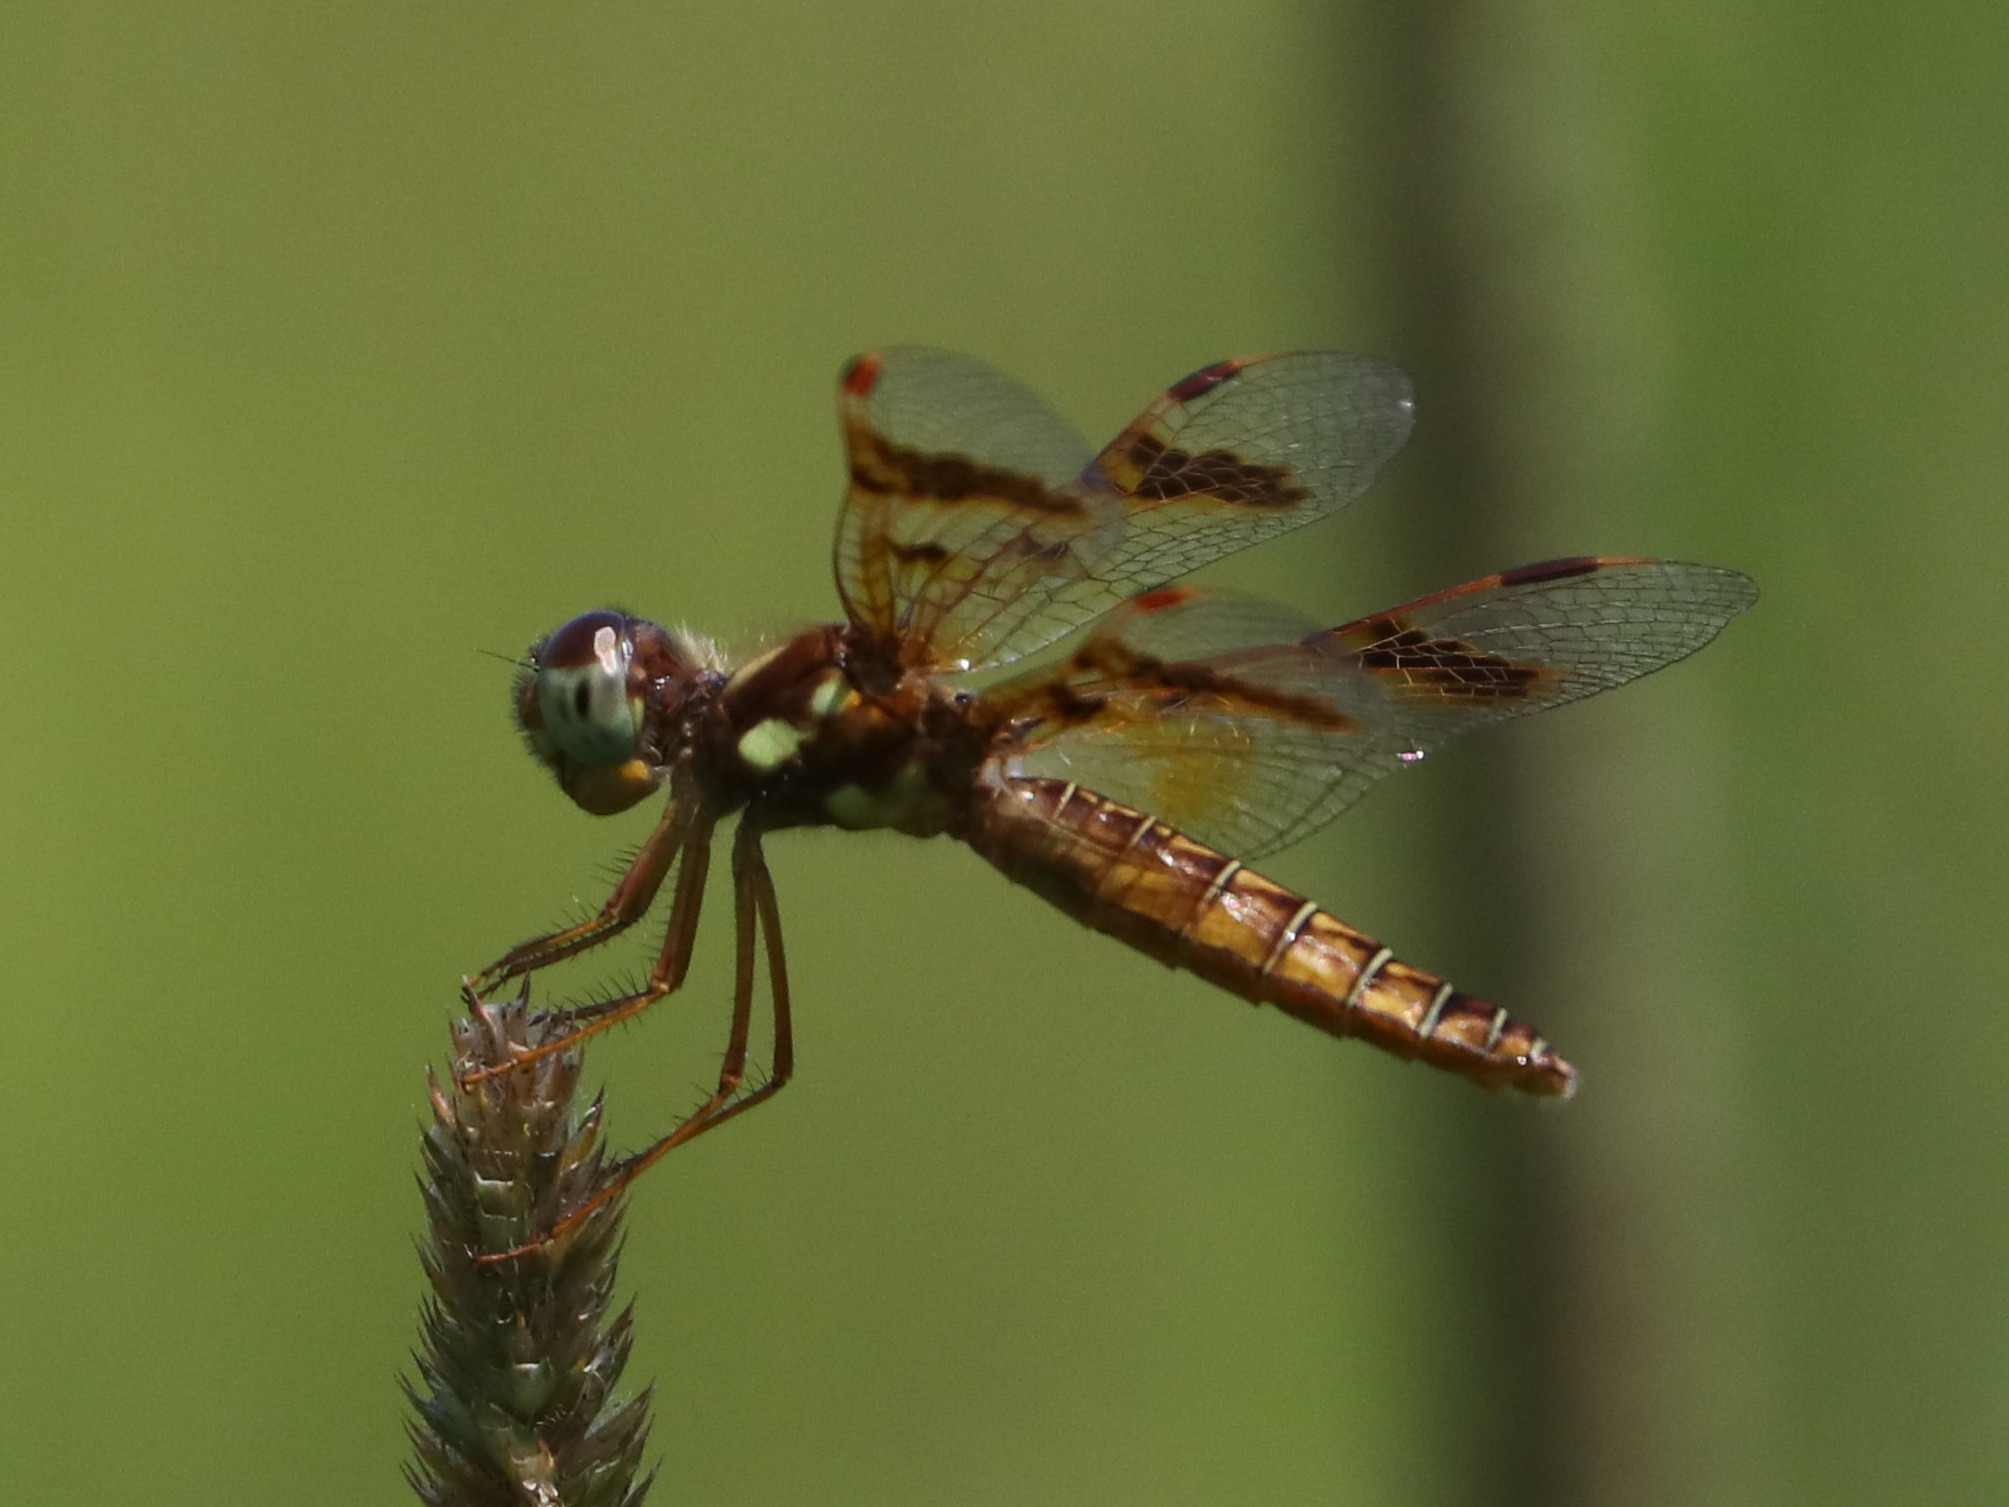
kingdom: Animalia
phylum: Arthropoda
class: Insecta
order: Odonata
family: Libellulidae
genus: Perithemis
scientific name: Perithemis tenera
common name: Eastern amberwing
